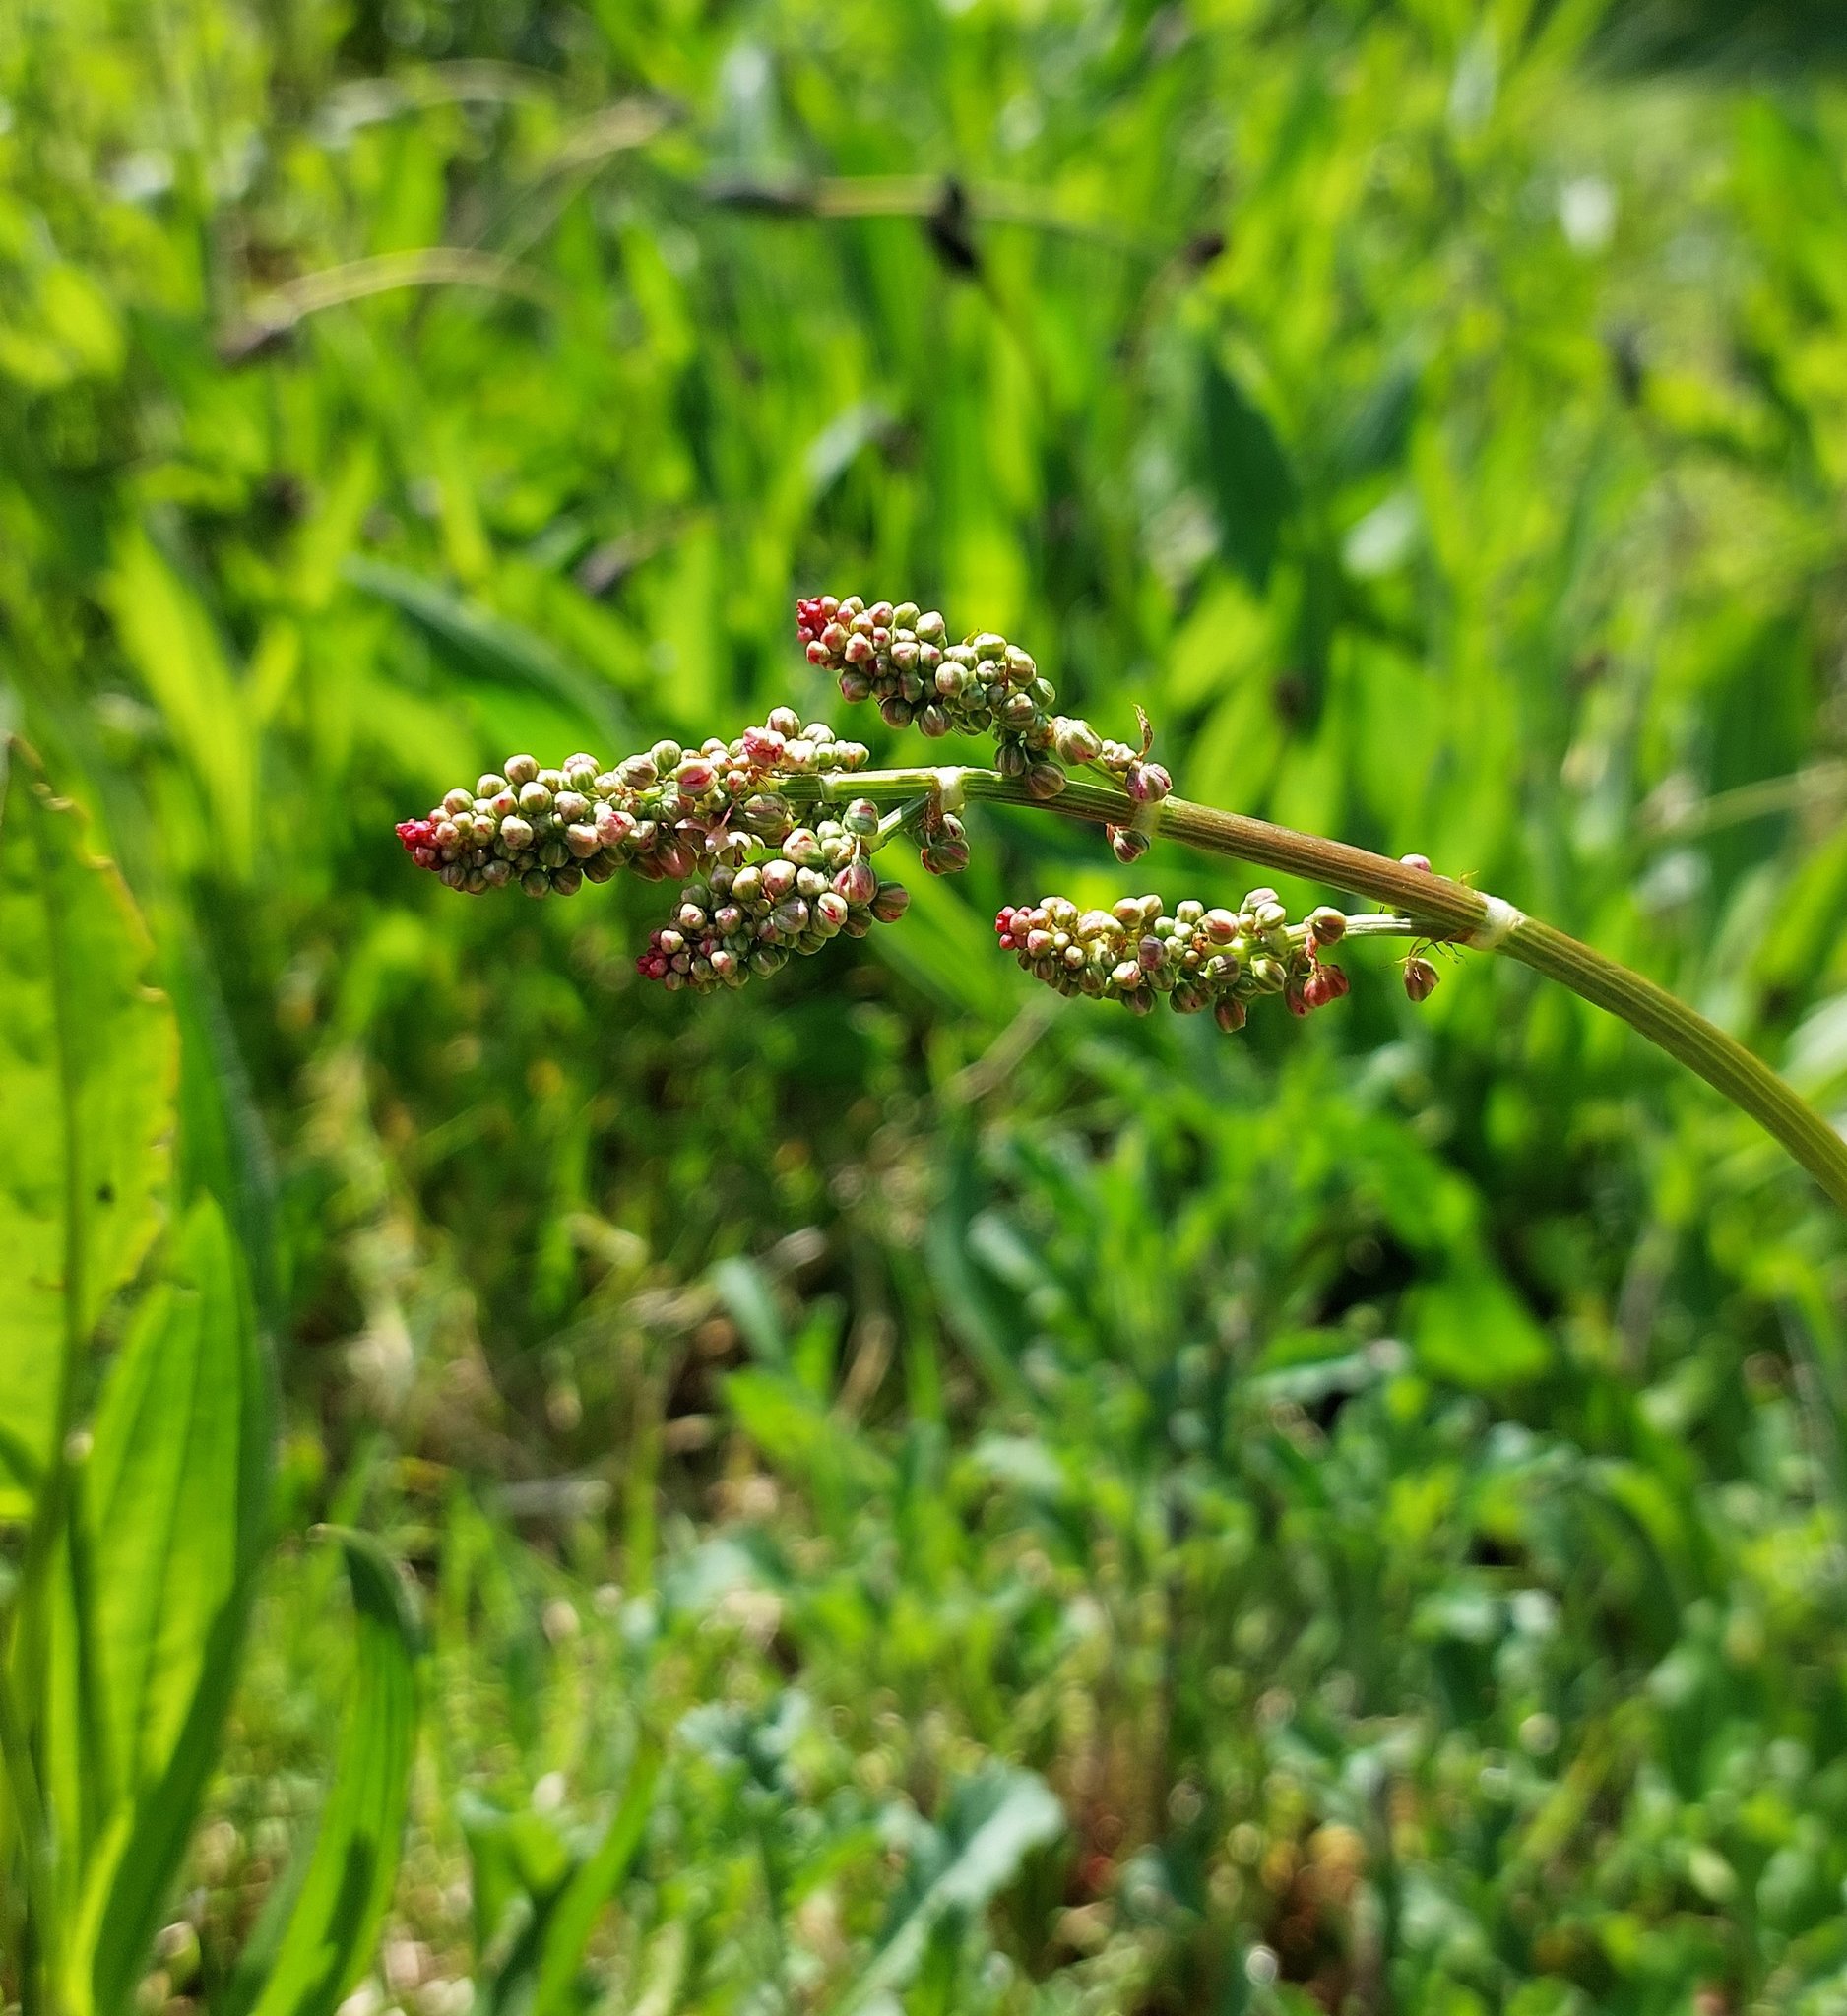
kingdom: Plantae
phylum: Tracheophyta
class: Magnoliopsida
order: Caryophyllales
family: Polygonaceae
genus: Rumex
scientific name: Rumex acetosa
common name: Garden sorrel
